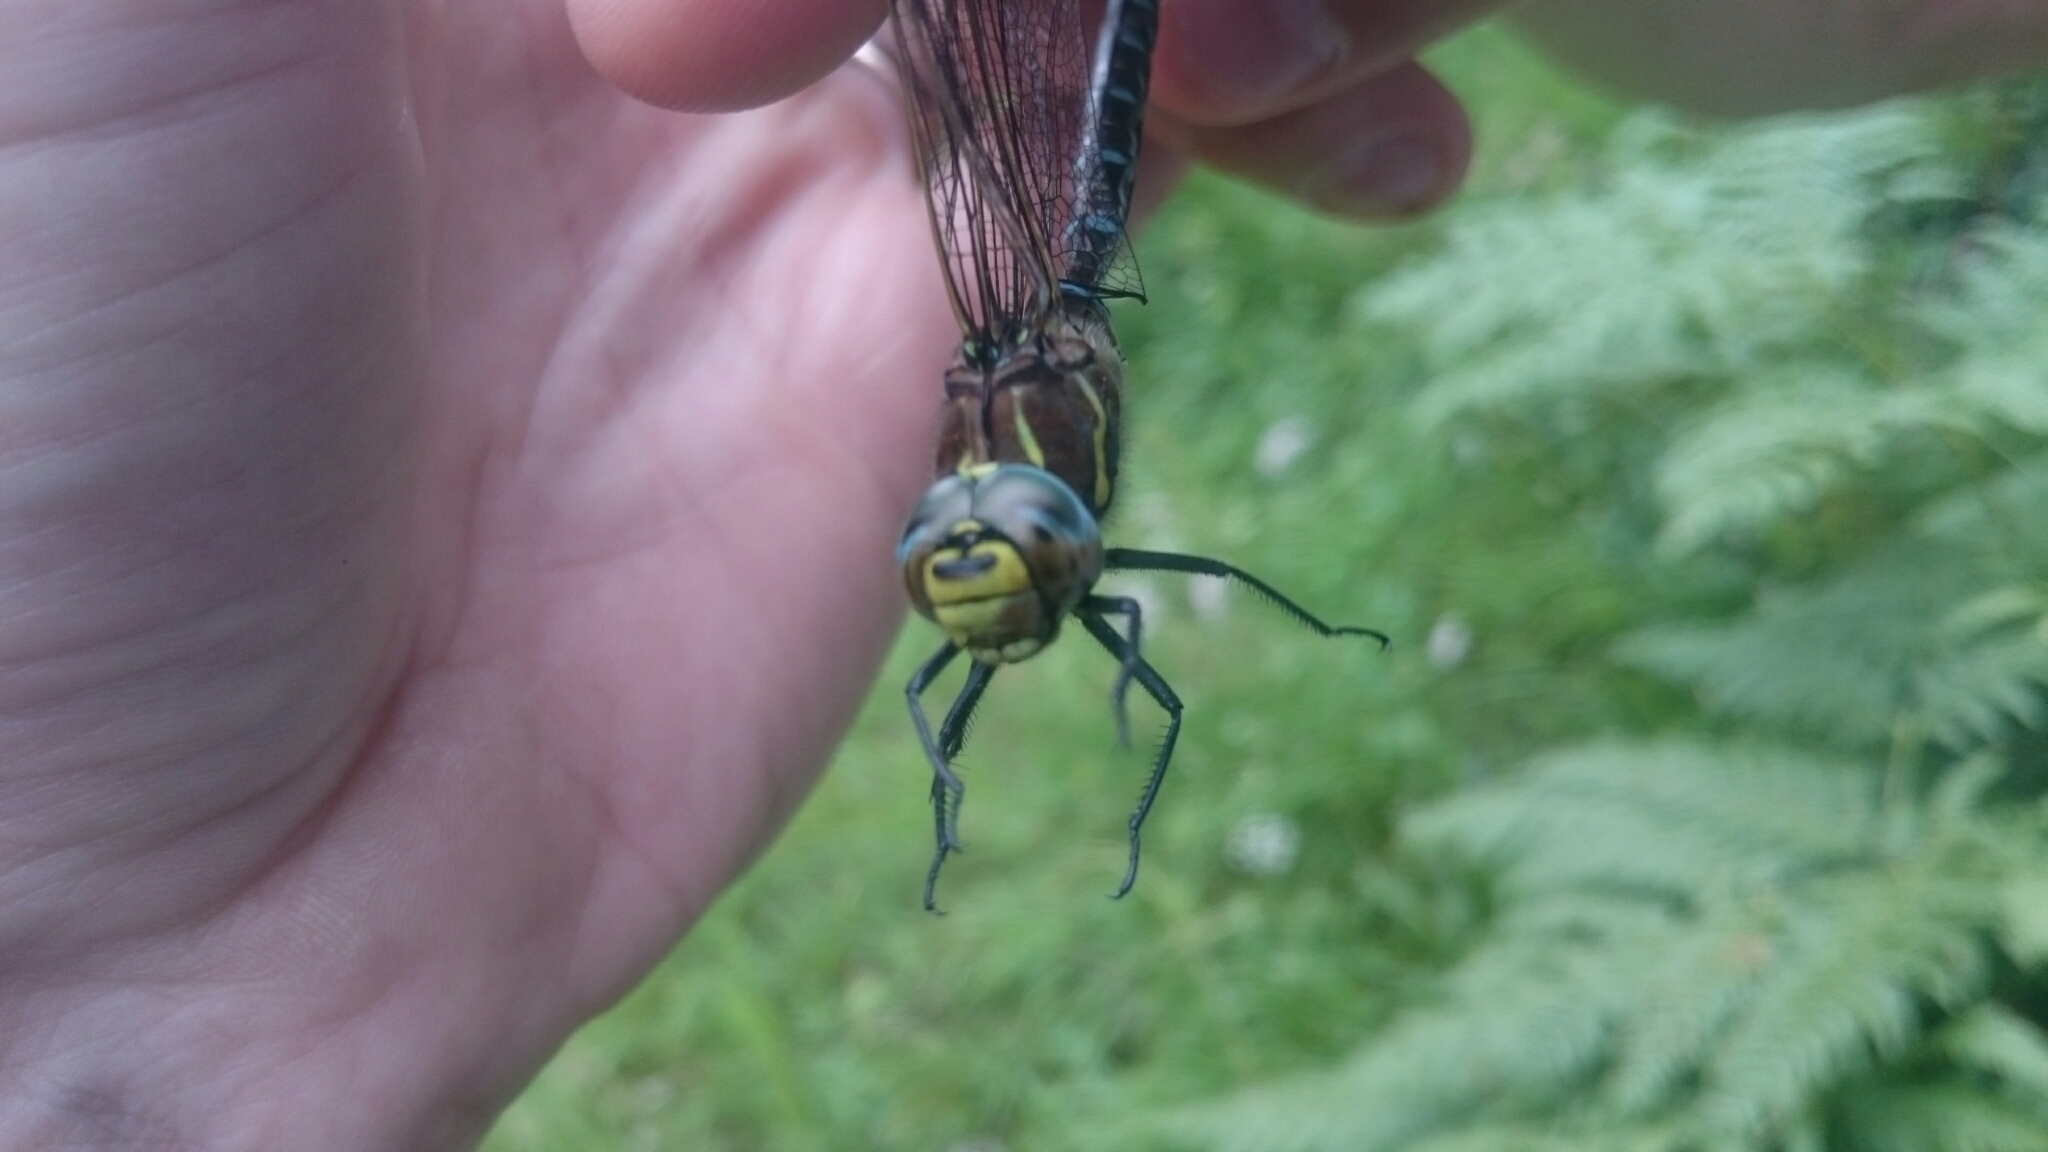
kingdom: Animalia
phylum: Arthropoda
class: Insecta
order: Odonata
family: Aeshnidae
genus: Aeshna
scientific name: Aeshna juncea
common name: Moorland hawker
